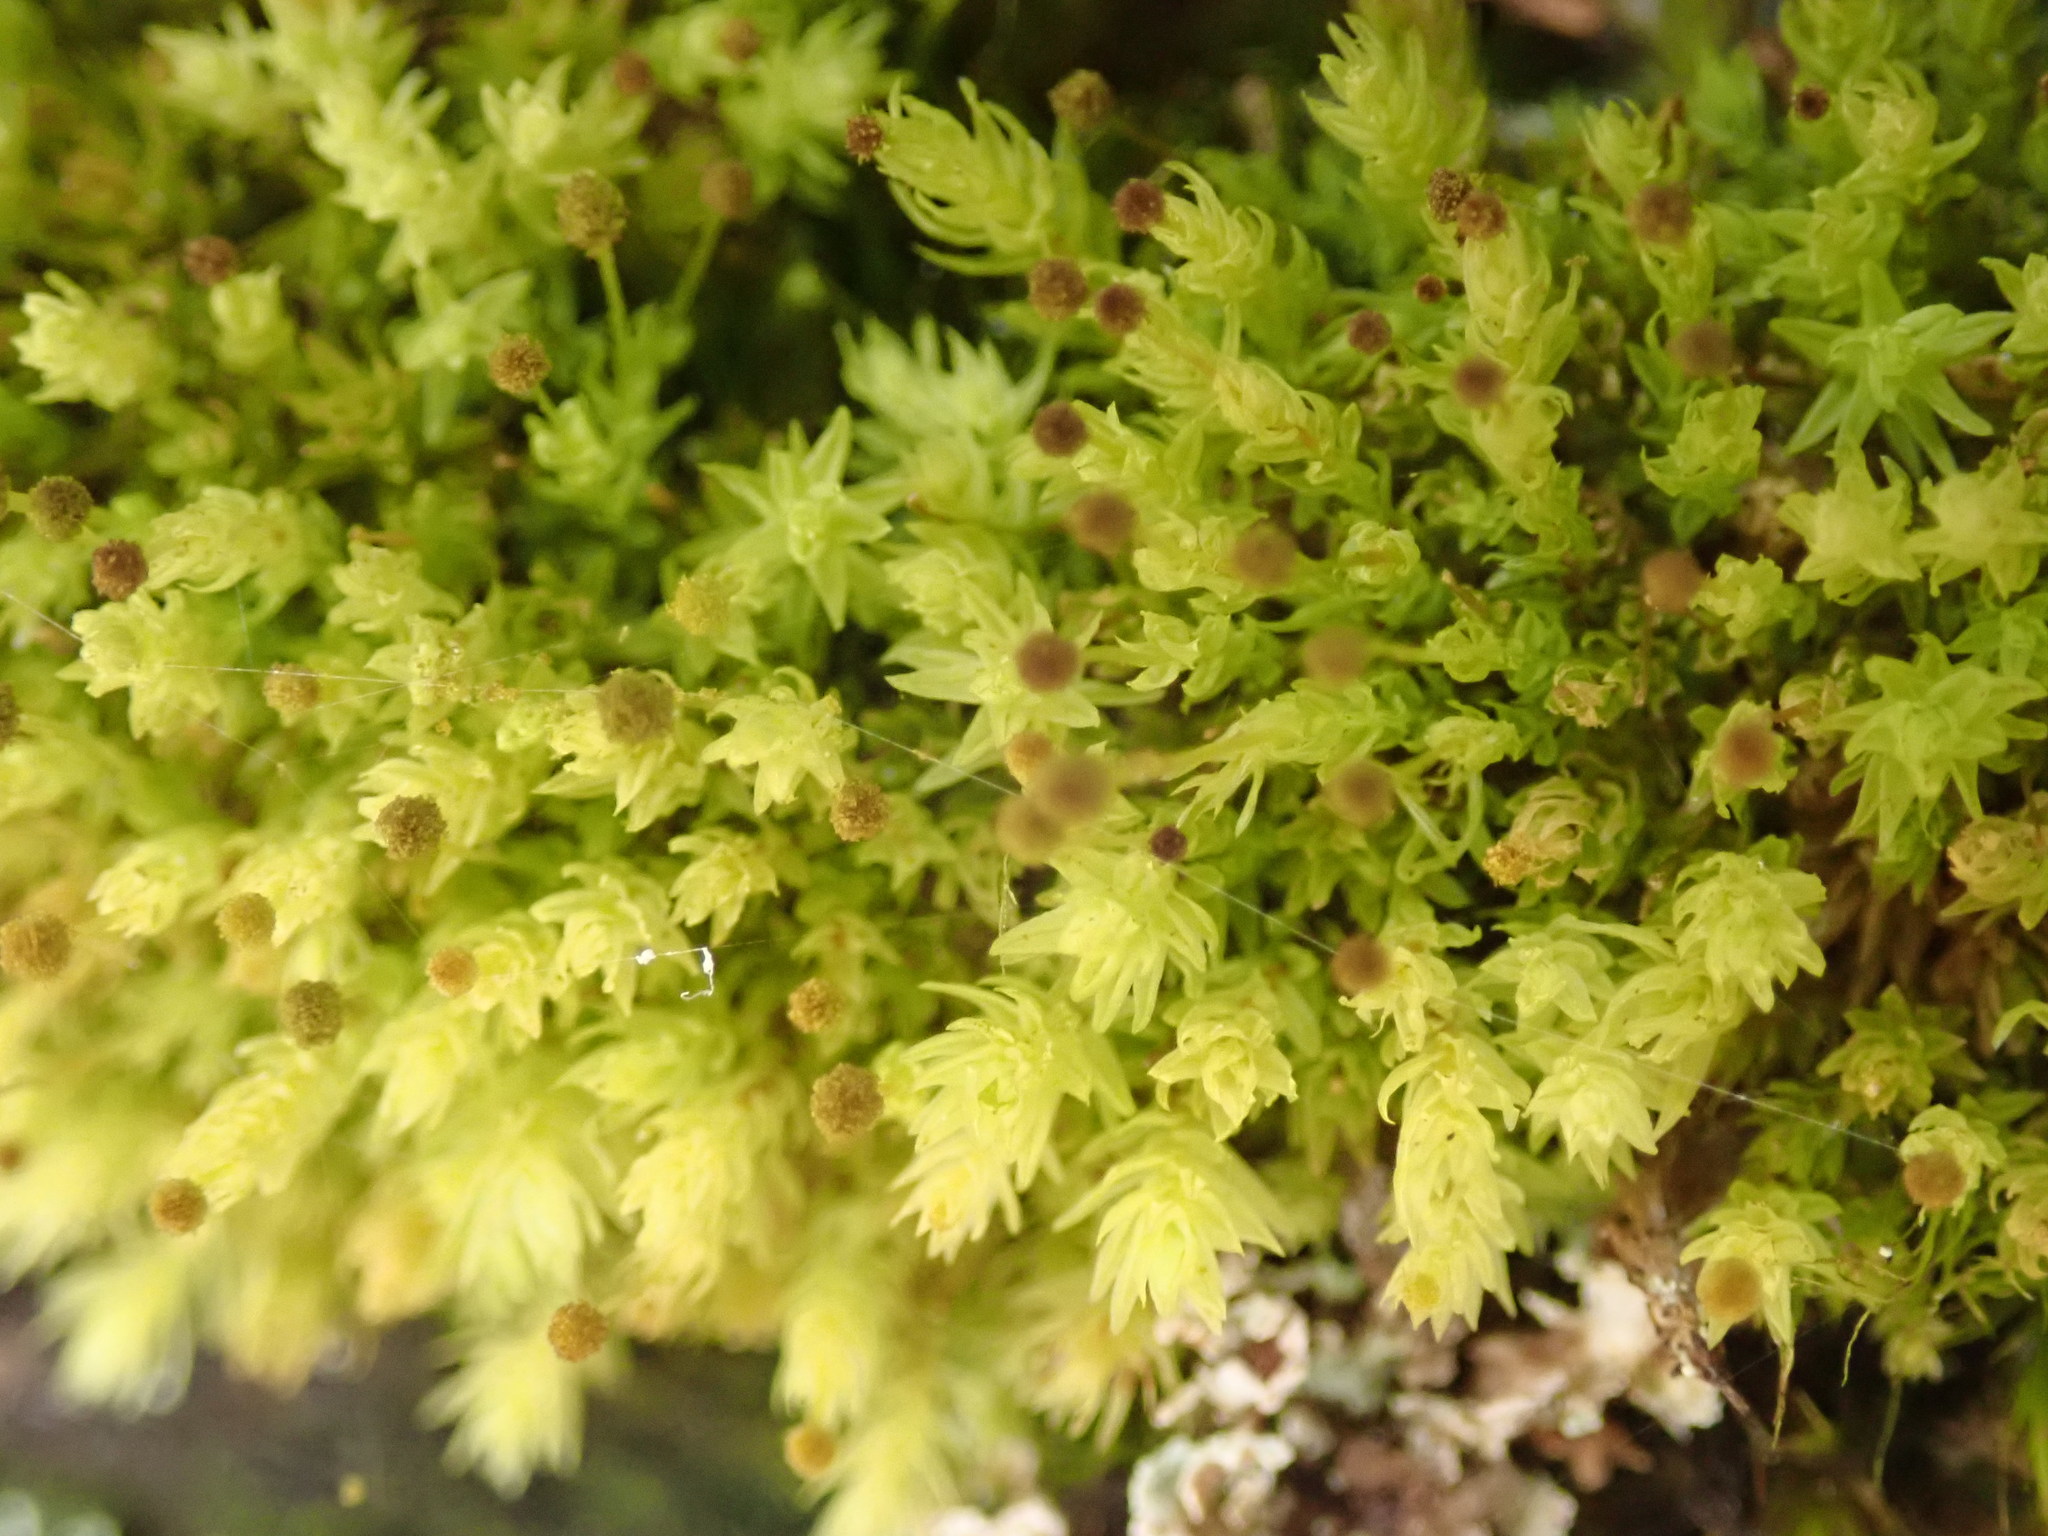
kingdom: Plantae
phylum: Bryophyta
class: Bryopsida
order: Aulacomniales
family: Aulacomniaceae
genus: Aulacomnium
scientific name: Aulacomnium androgynum
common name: Little groove moss
